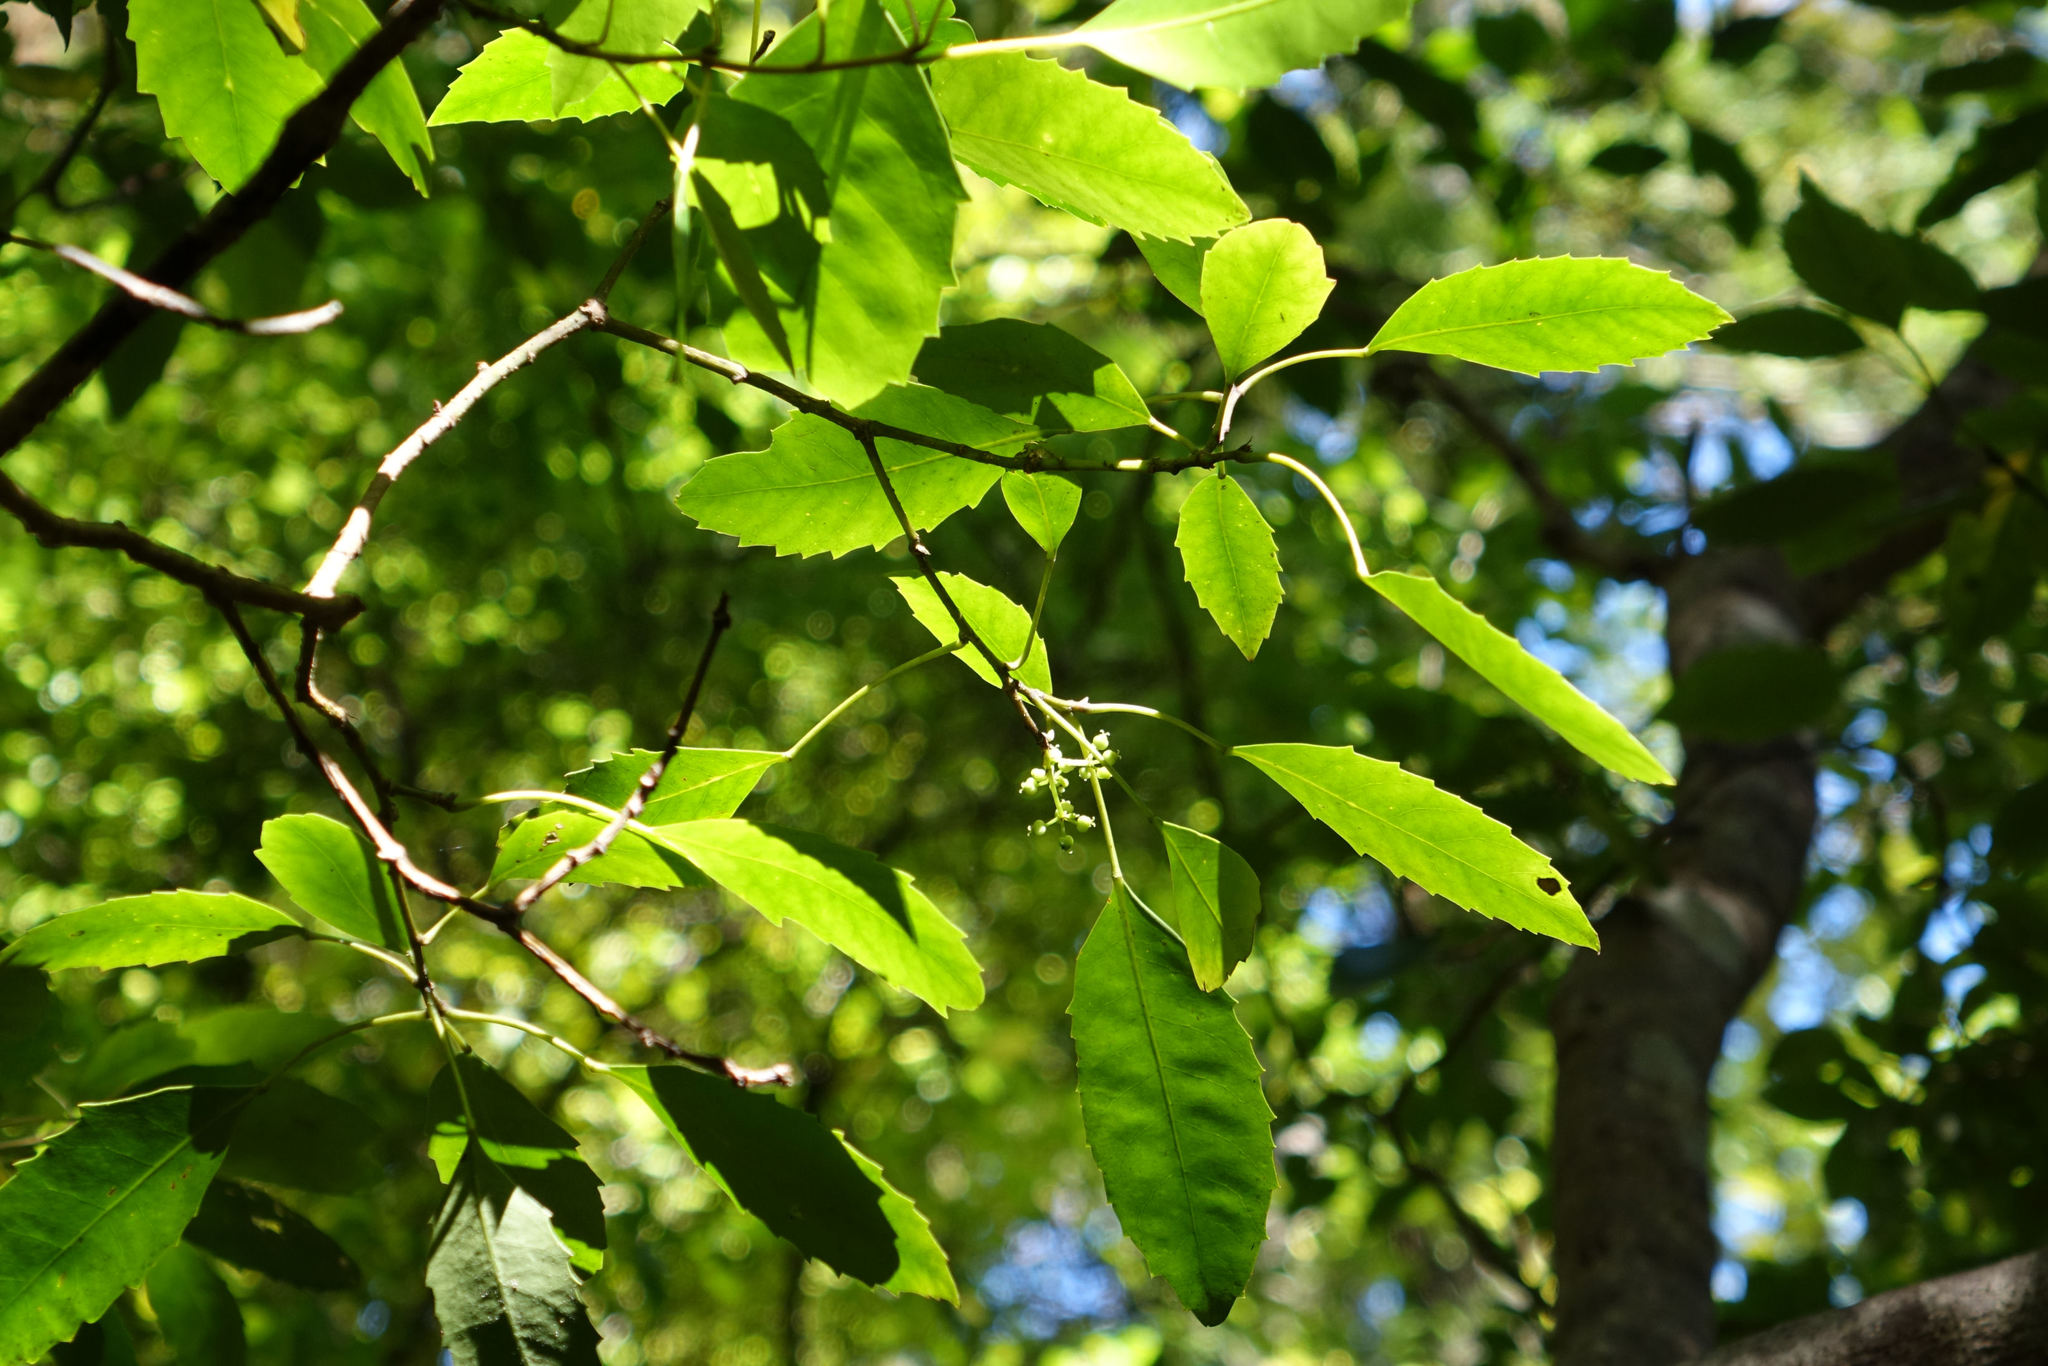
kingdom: Plantae
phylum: Tracheophyta
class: Magnoliopsida
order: Apiales
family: Araliaceae
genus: Raukaua
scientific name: Raukaua simplex
